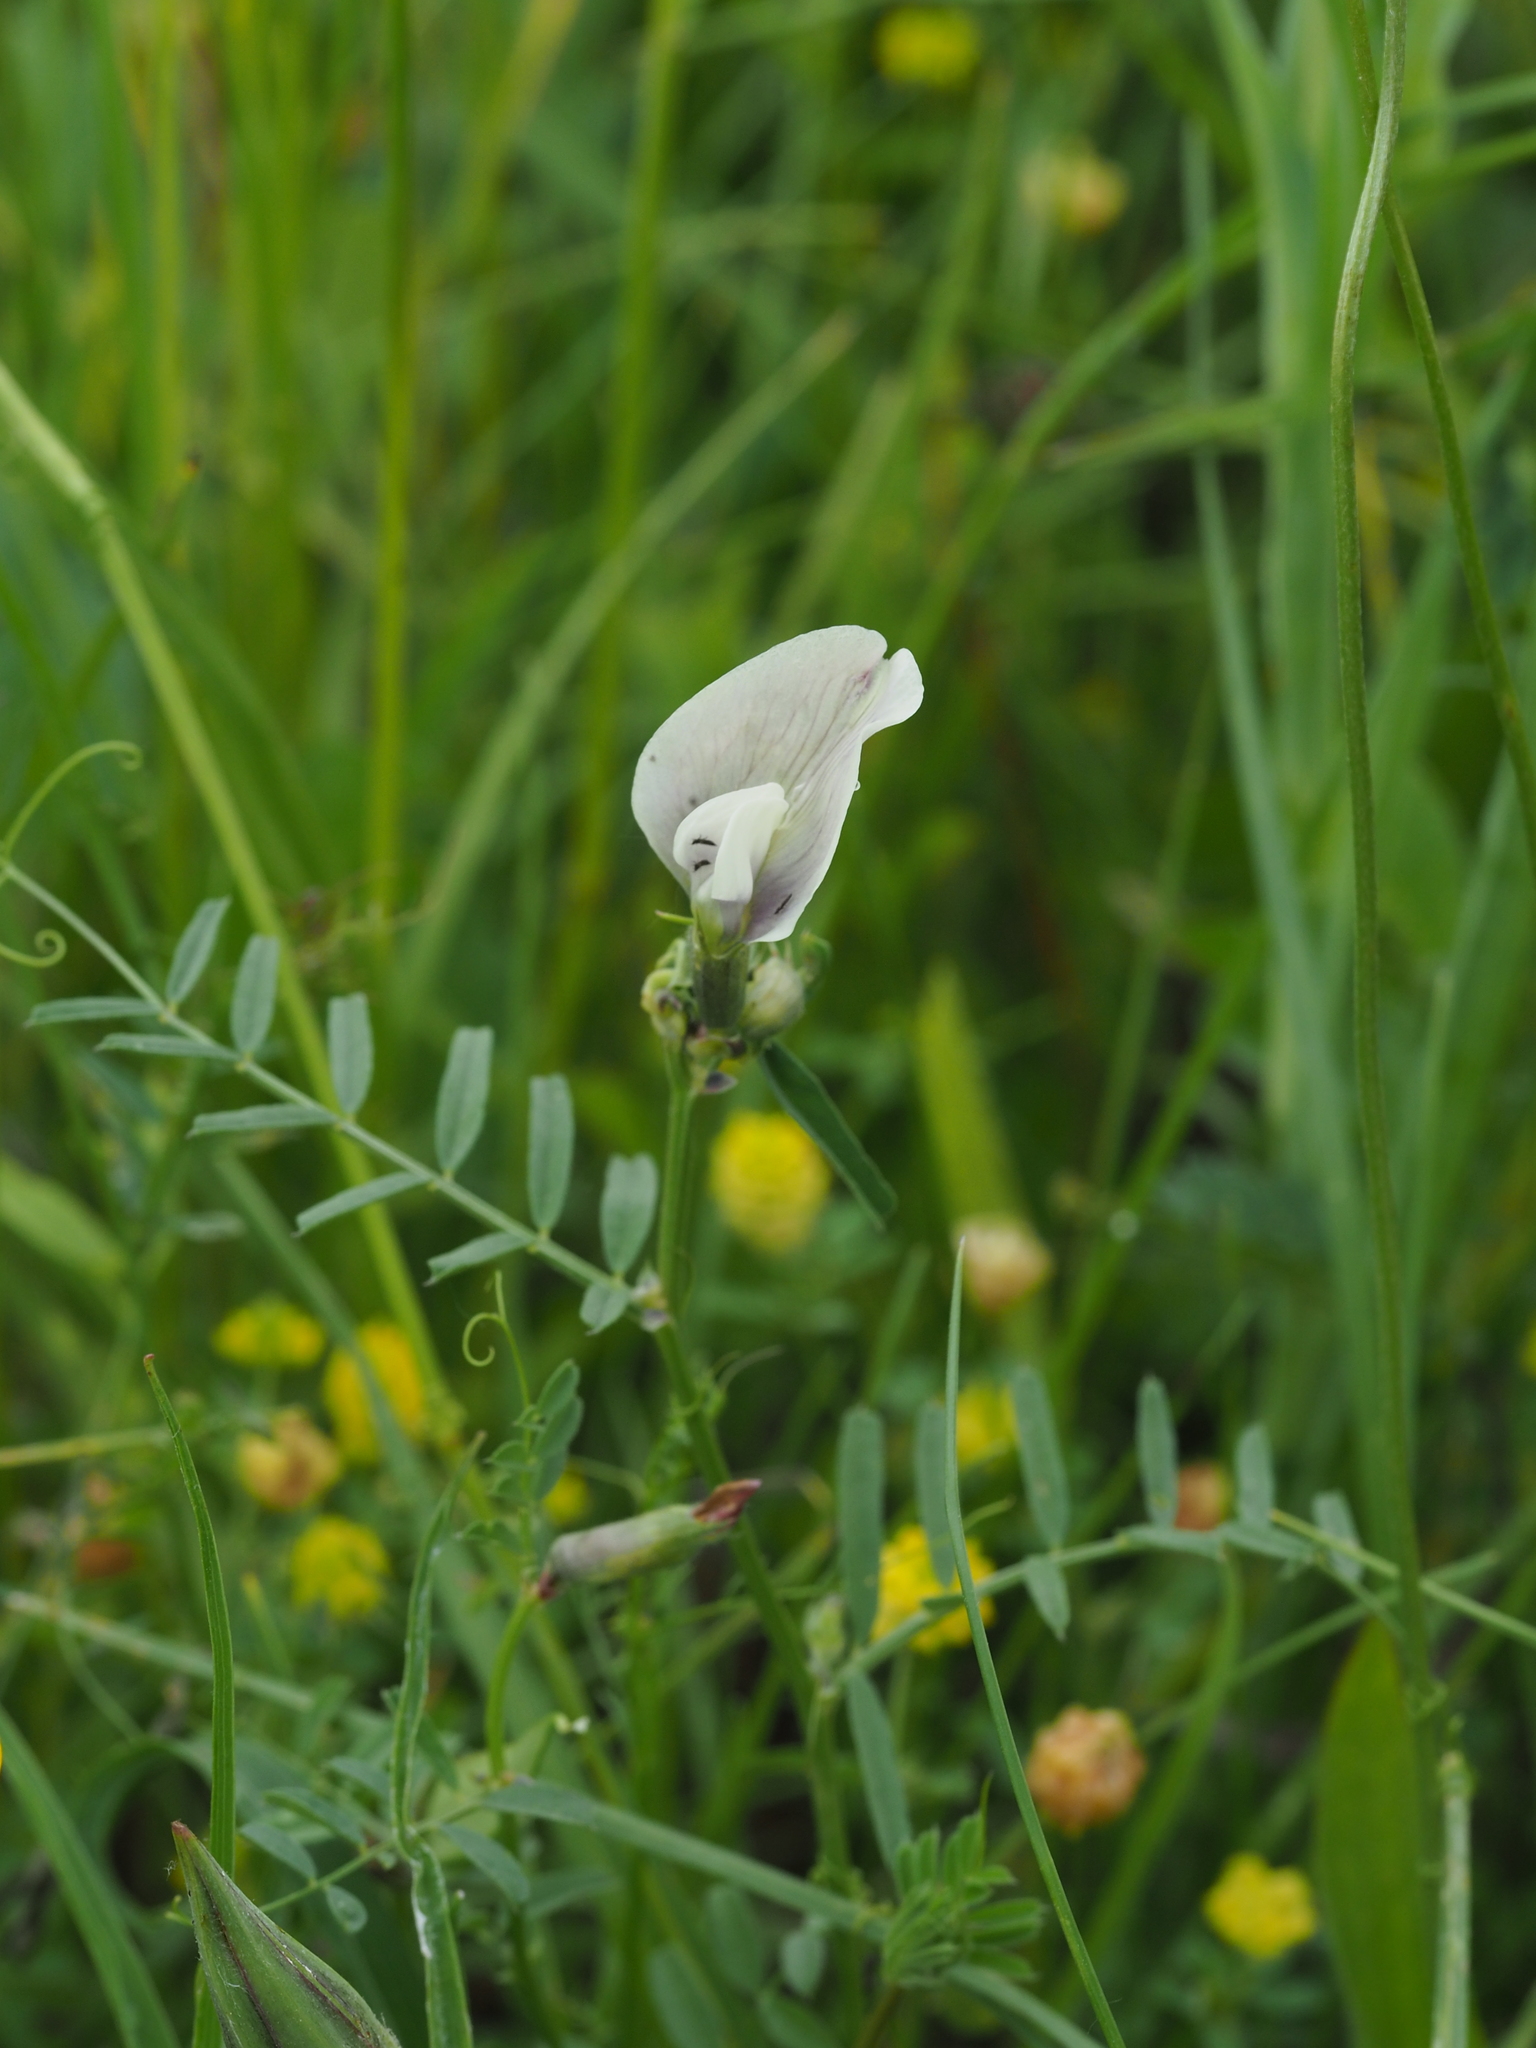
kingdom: Plantae
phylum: Tracheophyta
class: Magnoliopsida
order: Fabales
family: Fabaceae
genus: Vicia
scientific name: Vicia grandiflora
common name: Large yellow vetch
